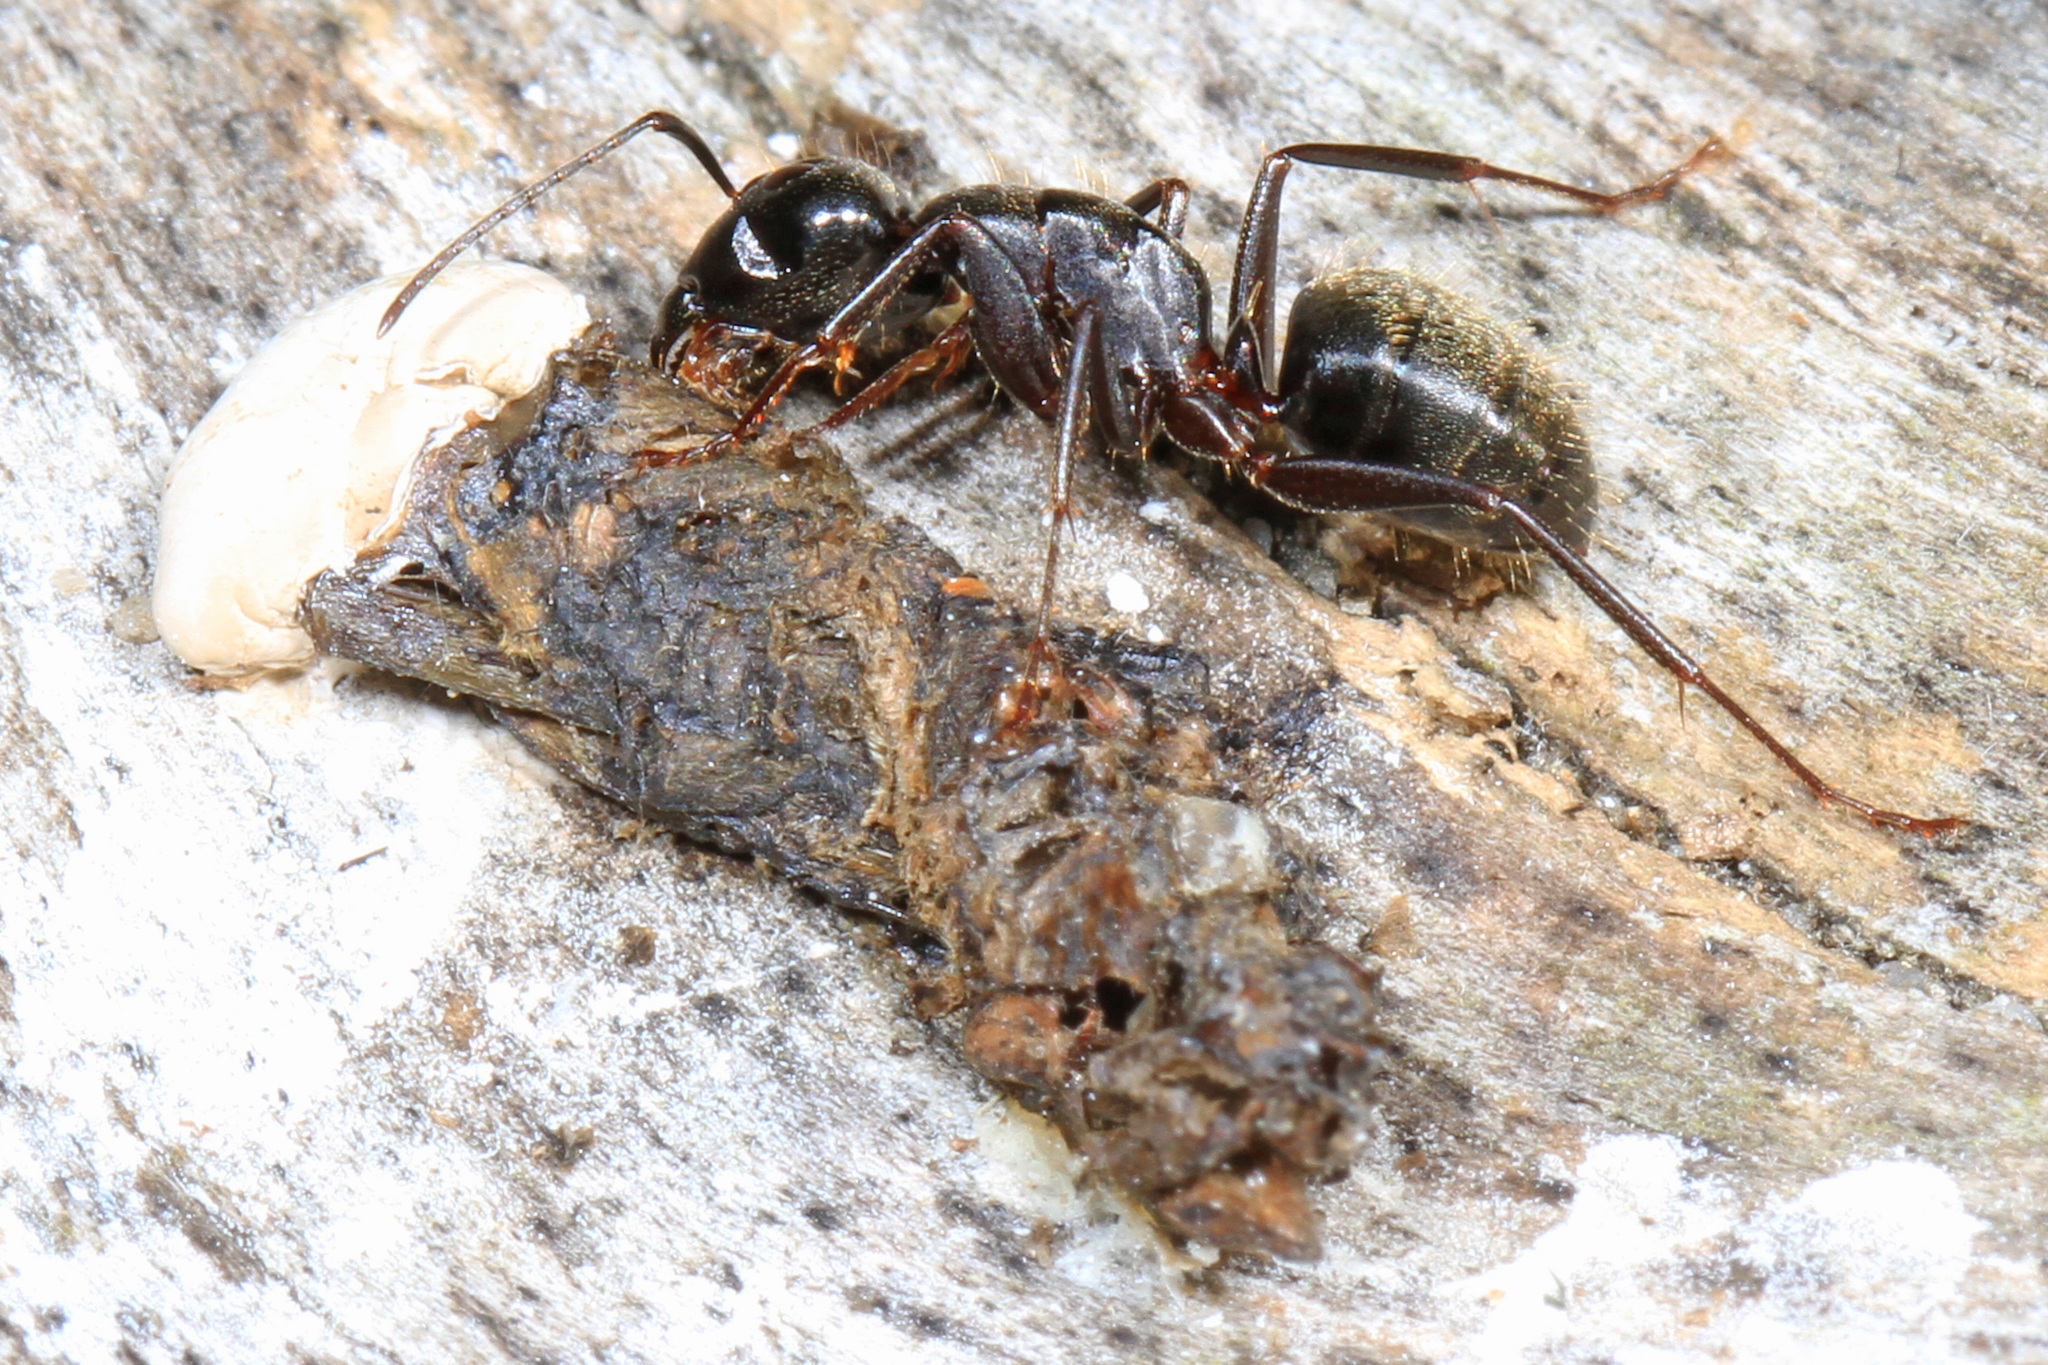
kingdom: Animalia
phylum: Arthropoda
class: Insecta
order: Hymenoptera
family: Formicidae
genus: Camponotus
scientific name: Camponotus pennsylvanicus
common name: Black carpenter ant
